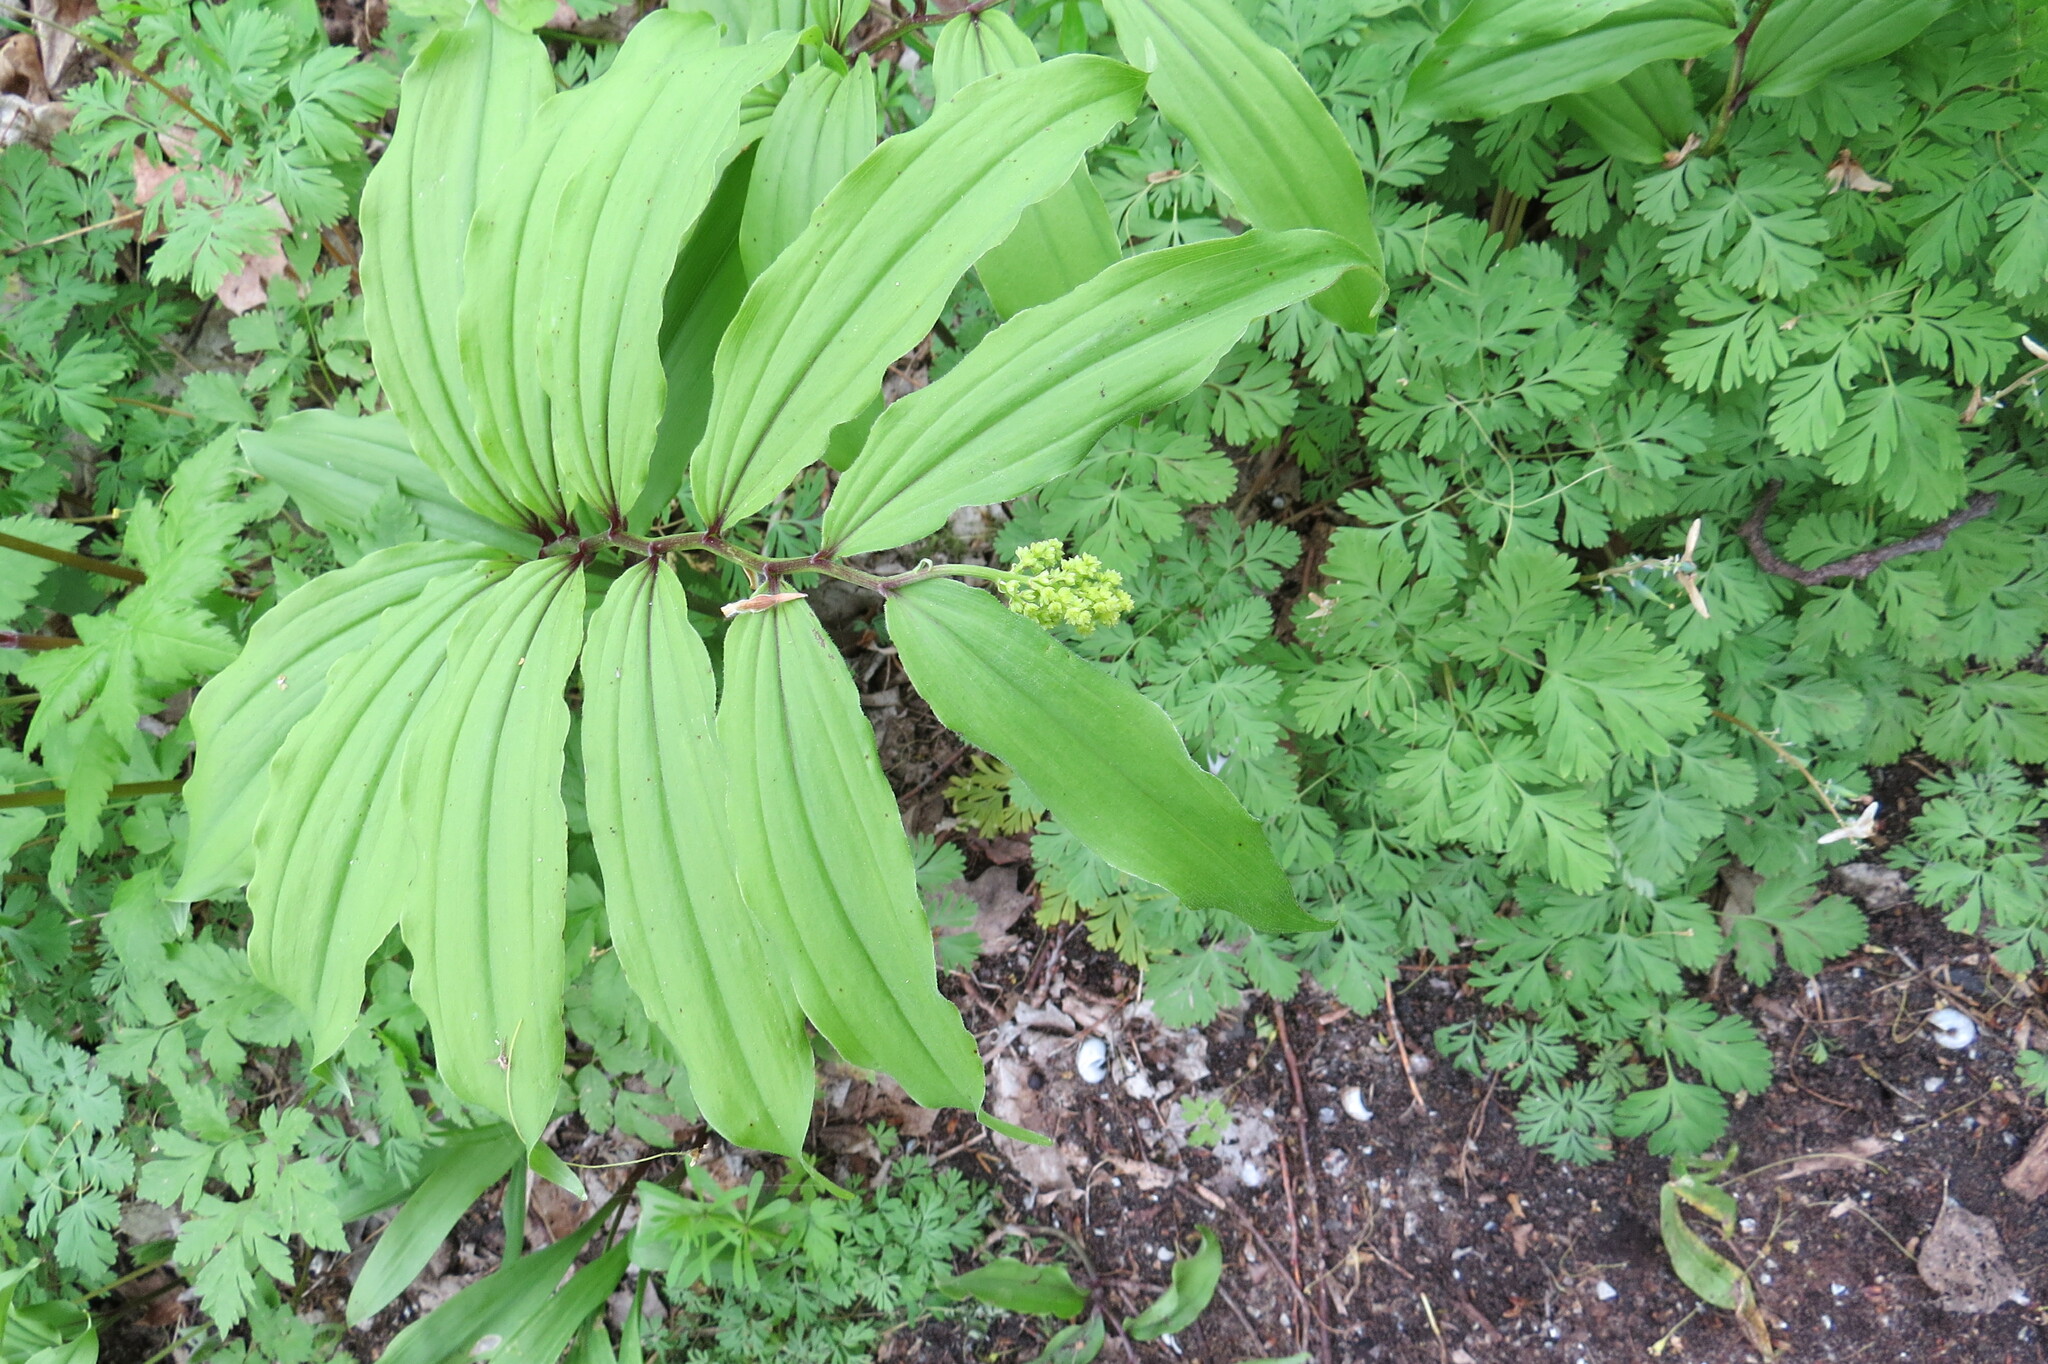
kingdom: Plantae
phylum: Tracheophyta
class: Liliopsida
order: Asparagales
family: Asparagaceae
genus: Maianthemum
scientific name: Maianthemum racemosum
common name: False spikenard
